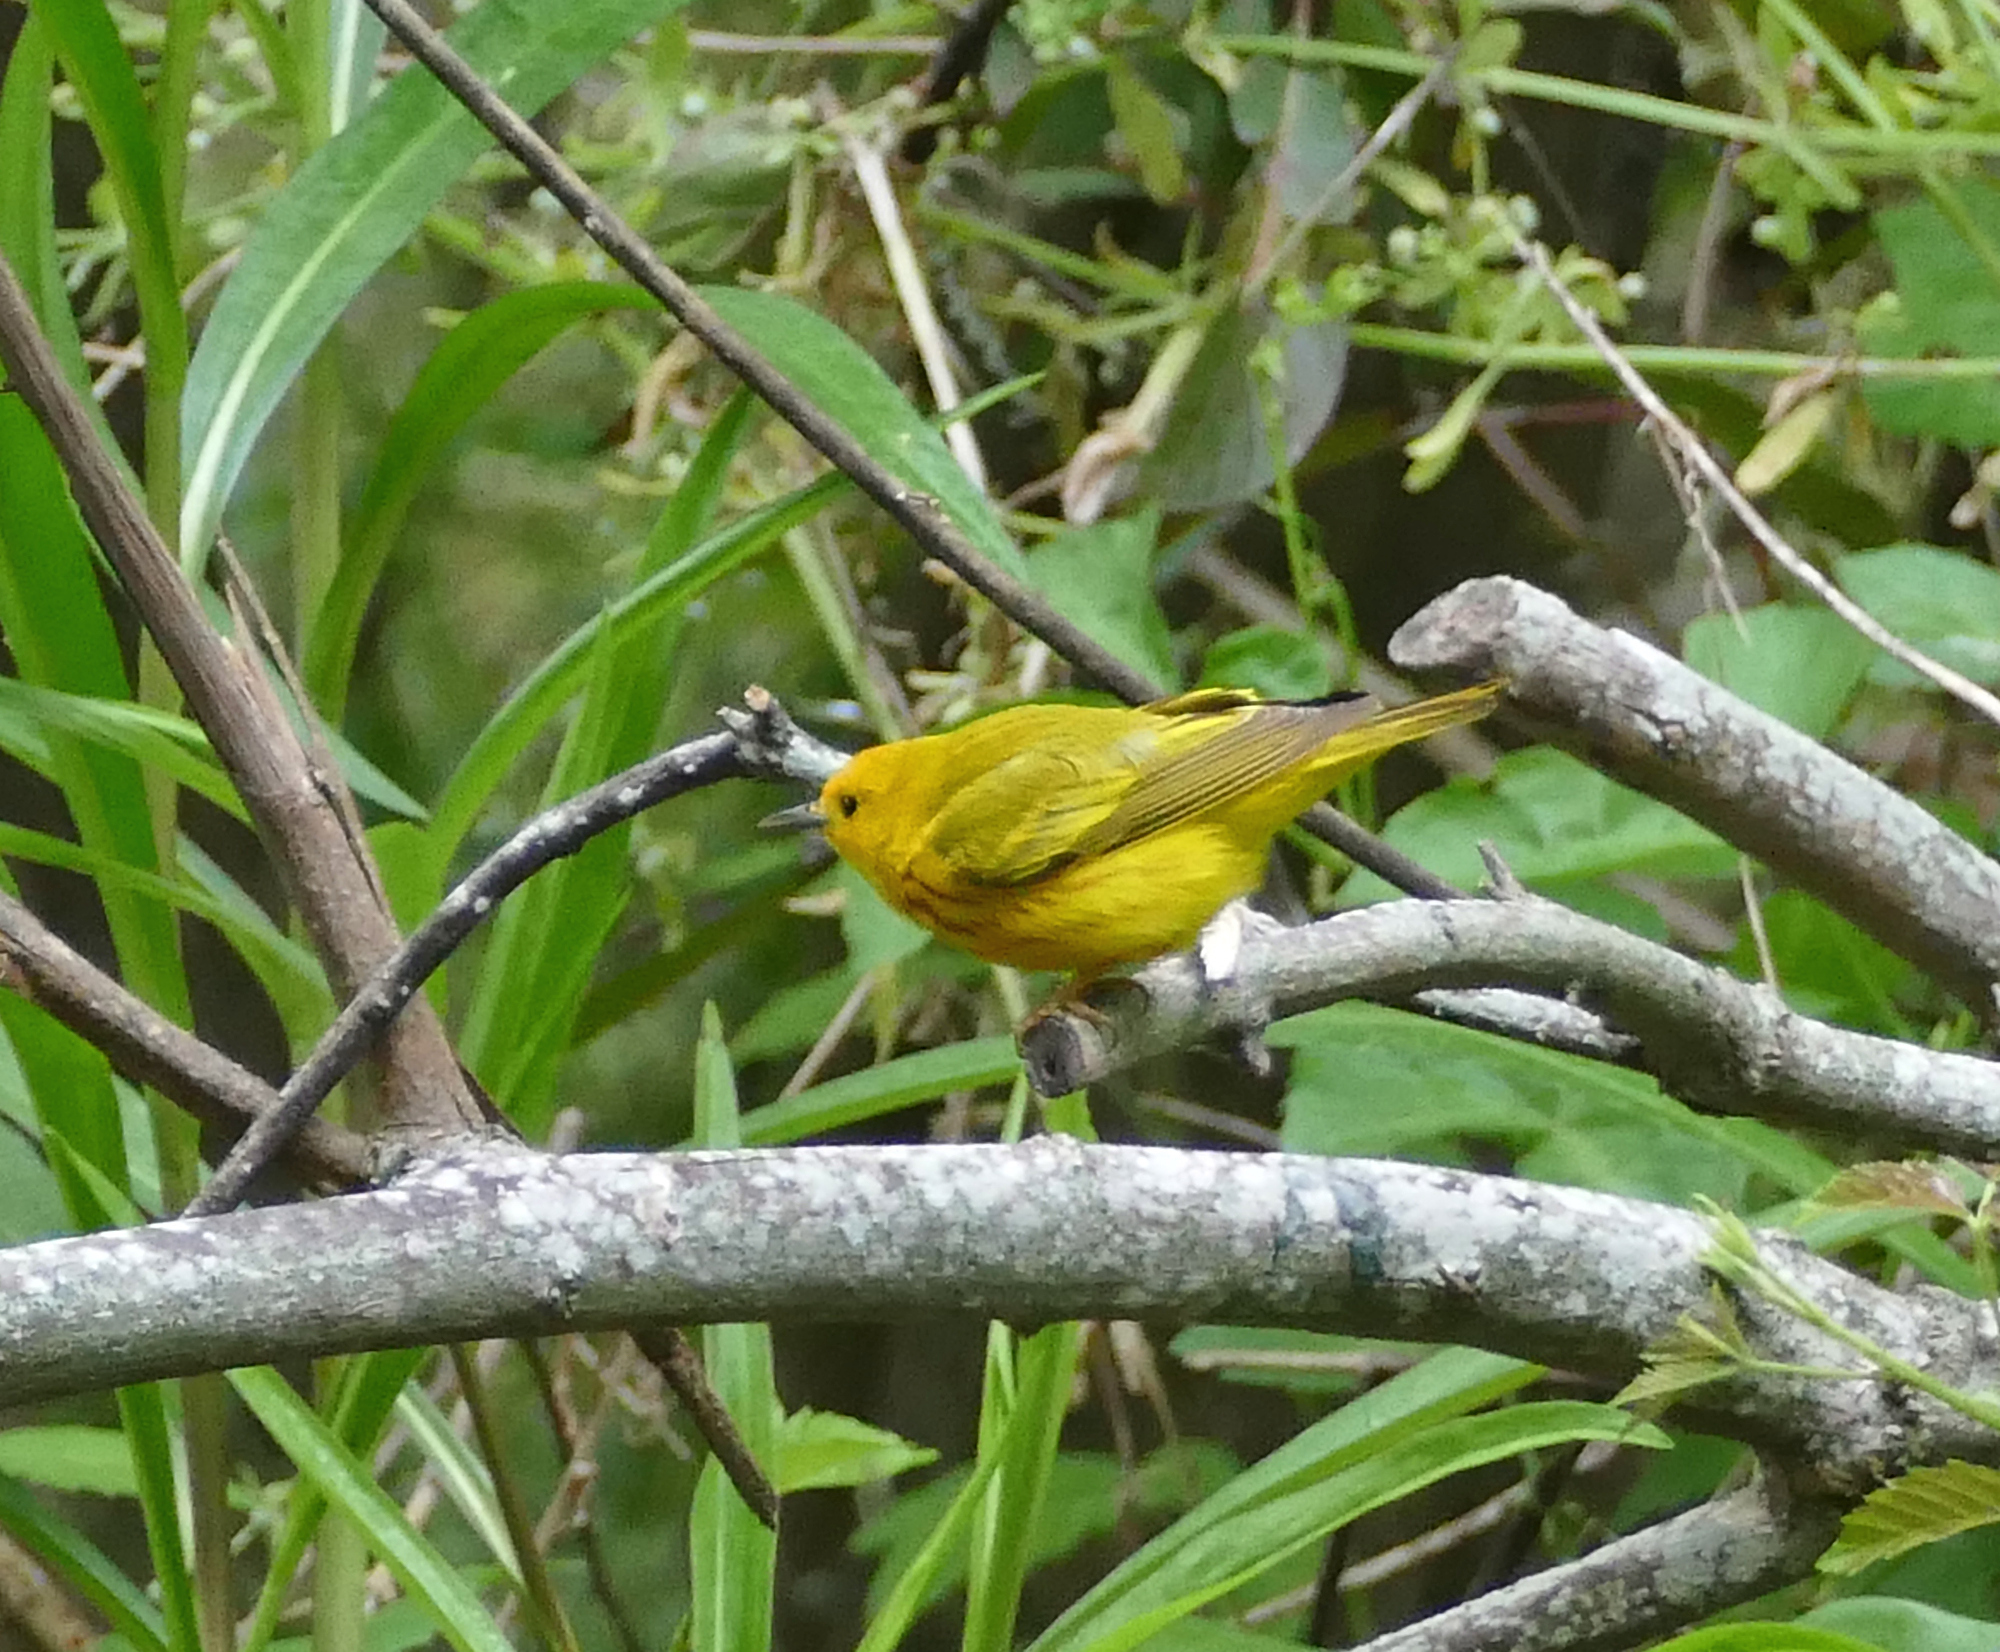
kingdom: Animalia
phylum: Chordata
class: Aves
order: Passeriformes
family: Parulidae
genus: Setophaga
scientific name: Setophaga petechia
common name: Yellow warbler
